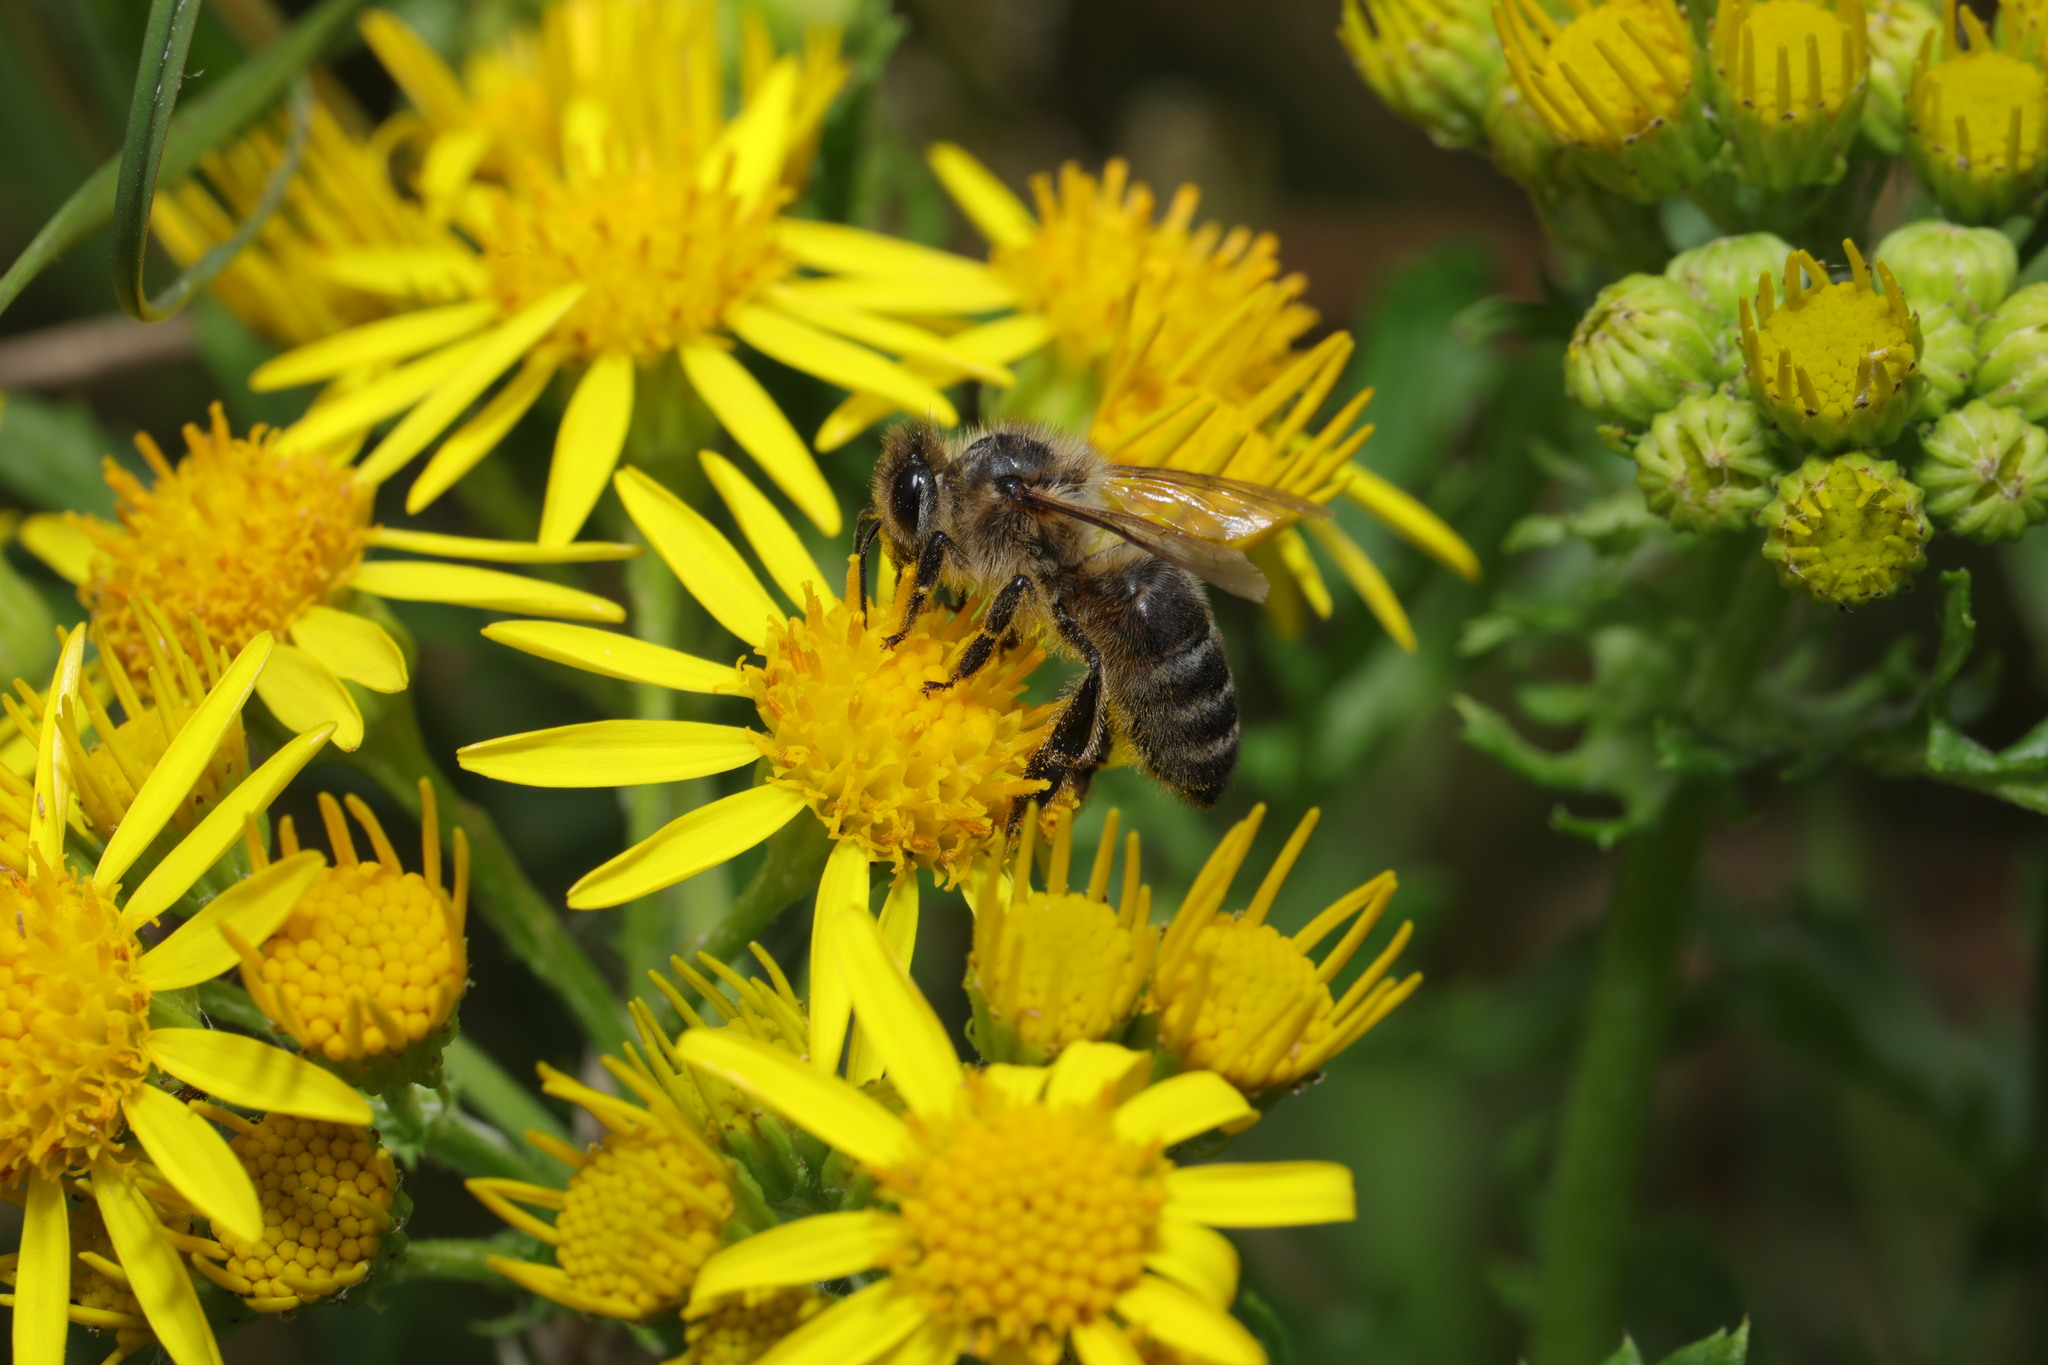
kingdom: Animalia
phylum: Arthropoda
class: Insecta
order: Hymenoptera
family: Apidae
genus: Apis
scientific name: Apis mellifera
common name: Honey bee
